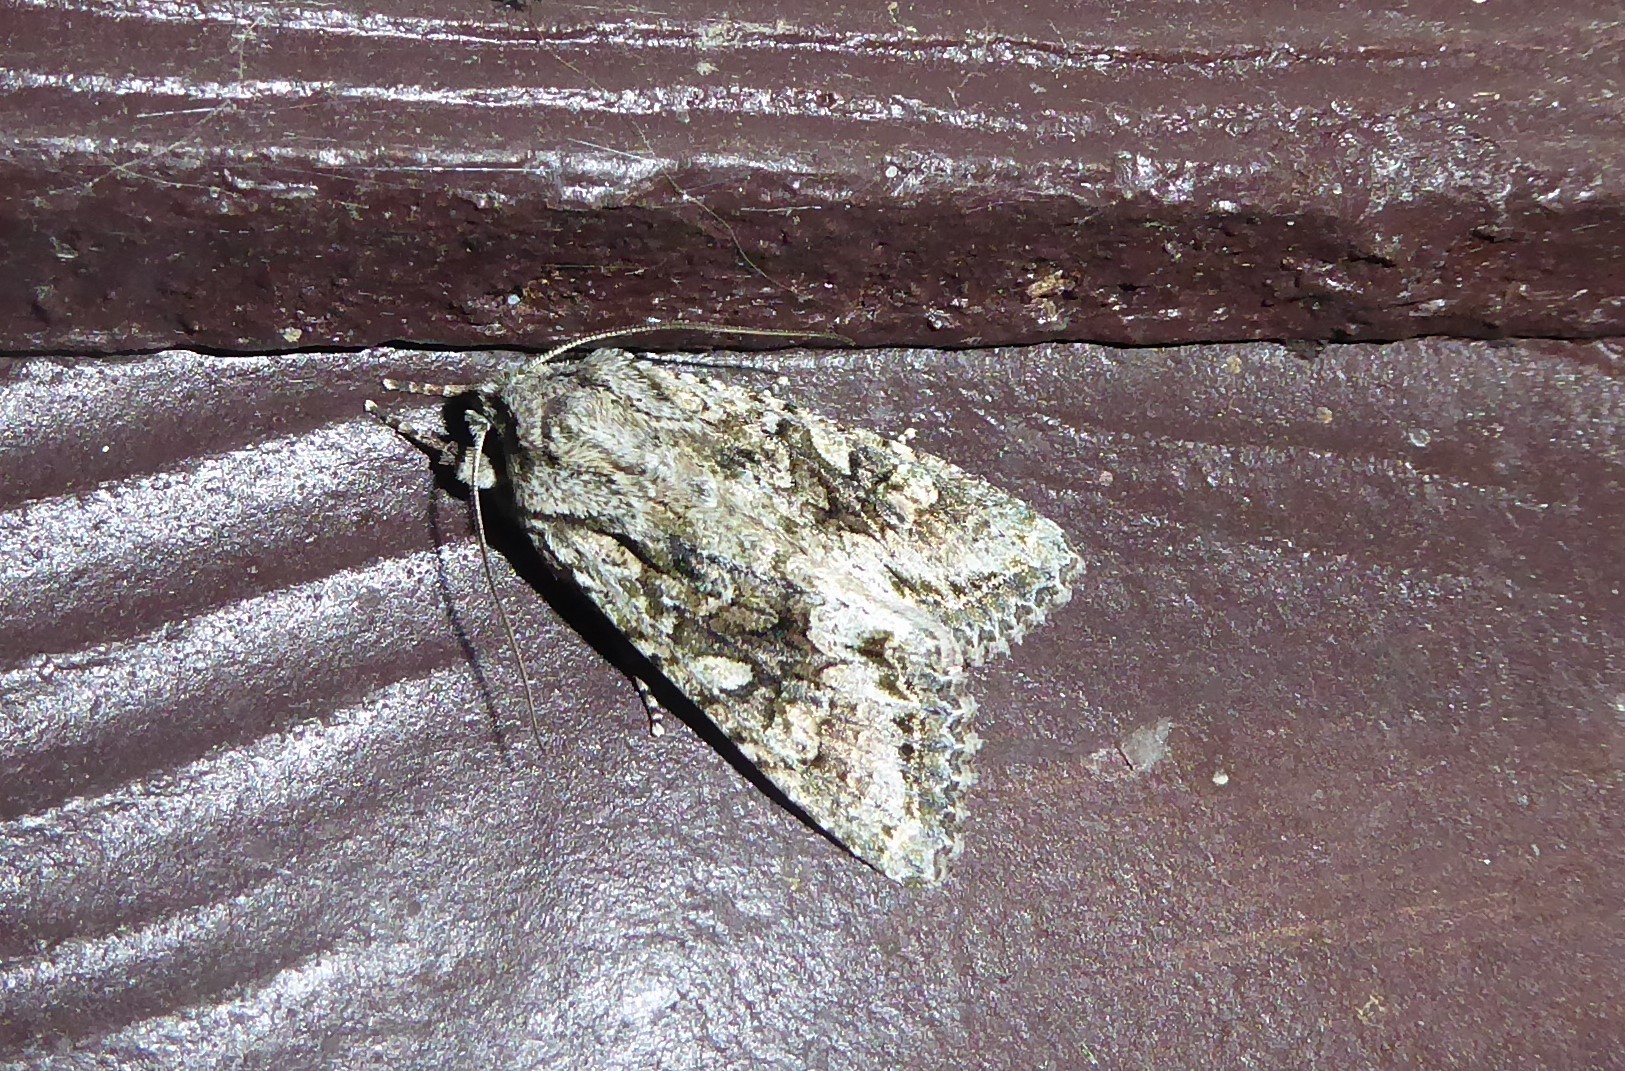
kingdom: Animalia
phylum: Arthropoda
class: Insecta
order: Lepidoptera
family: Noctuidae
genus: Ichneutica
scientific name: Ichneutica mutans
